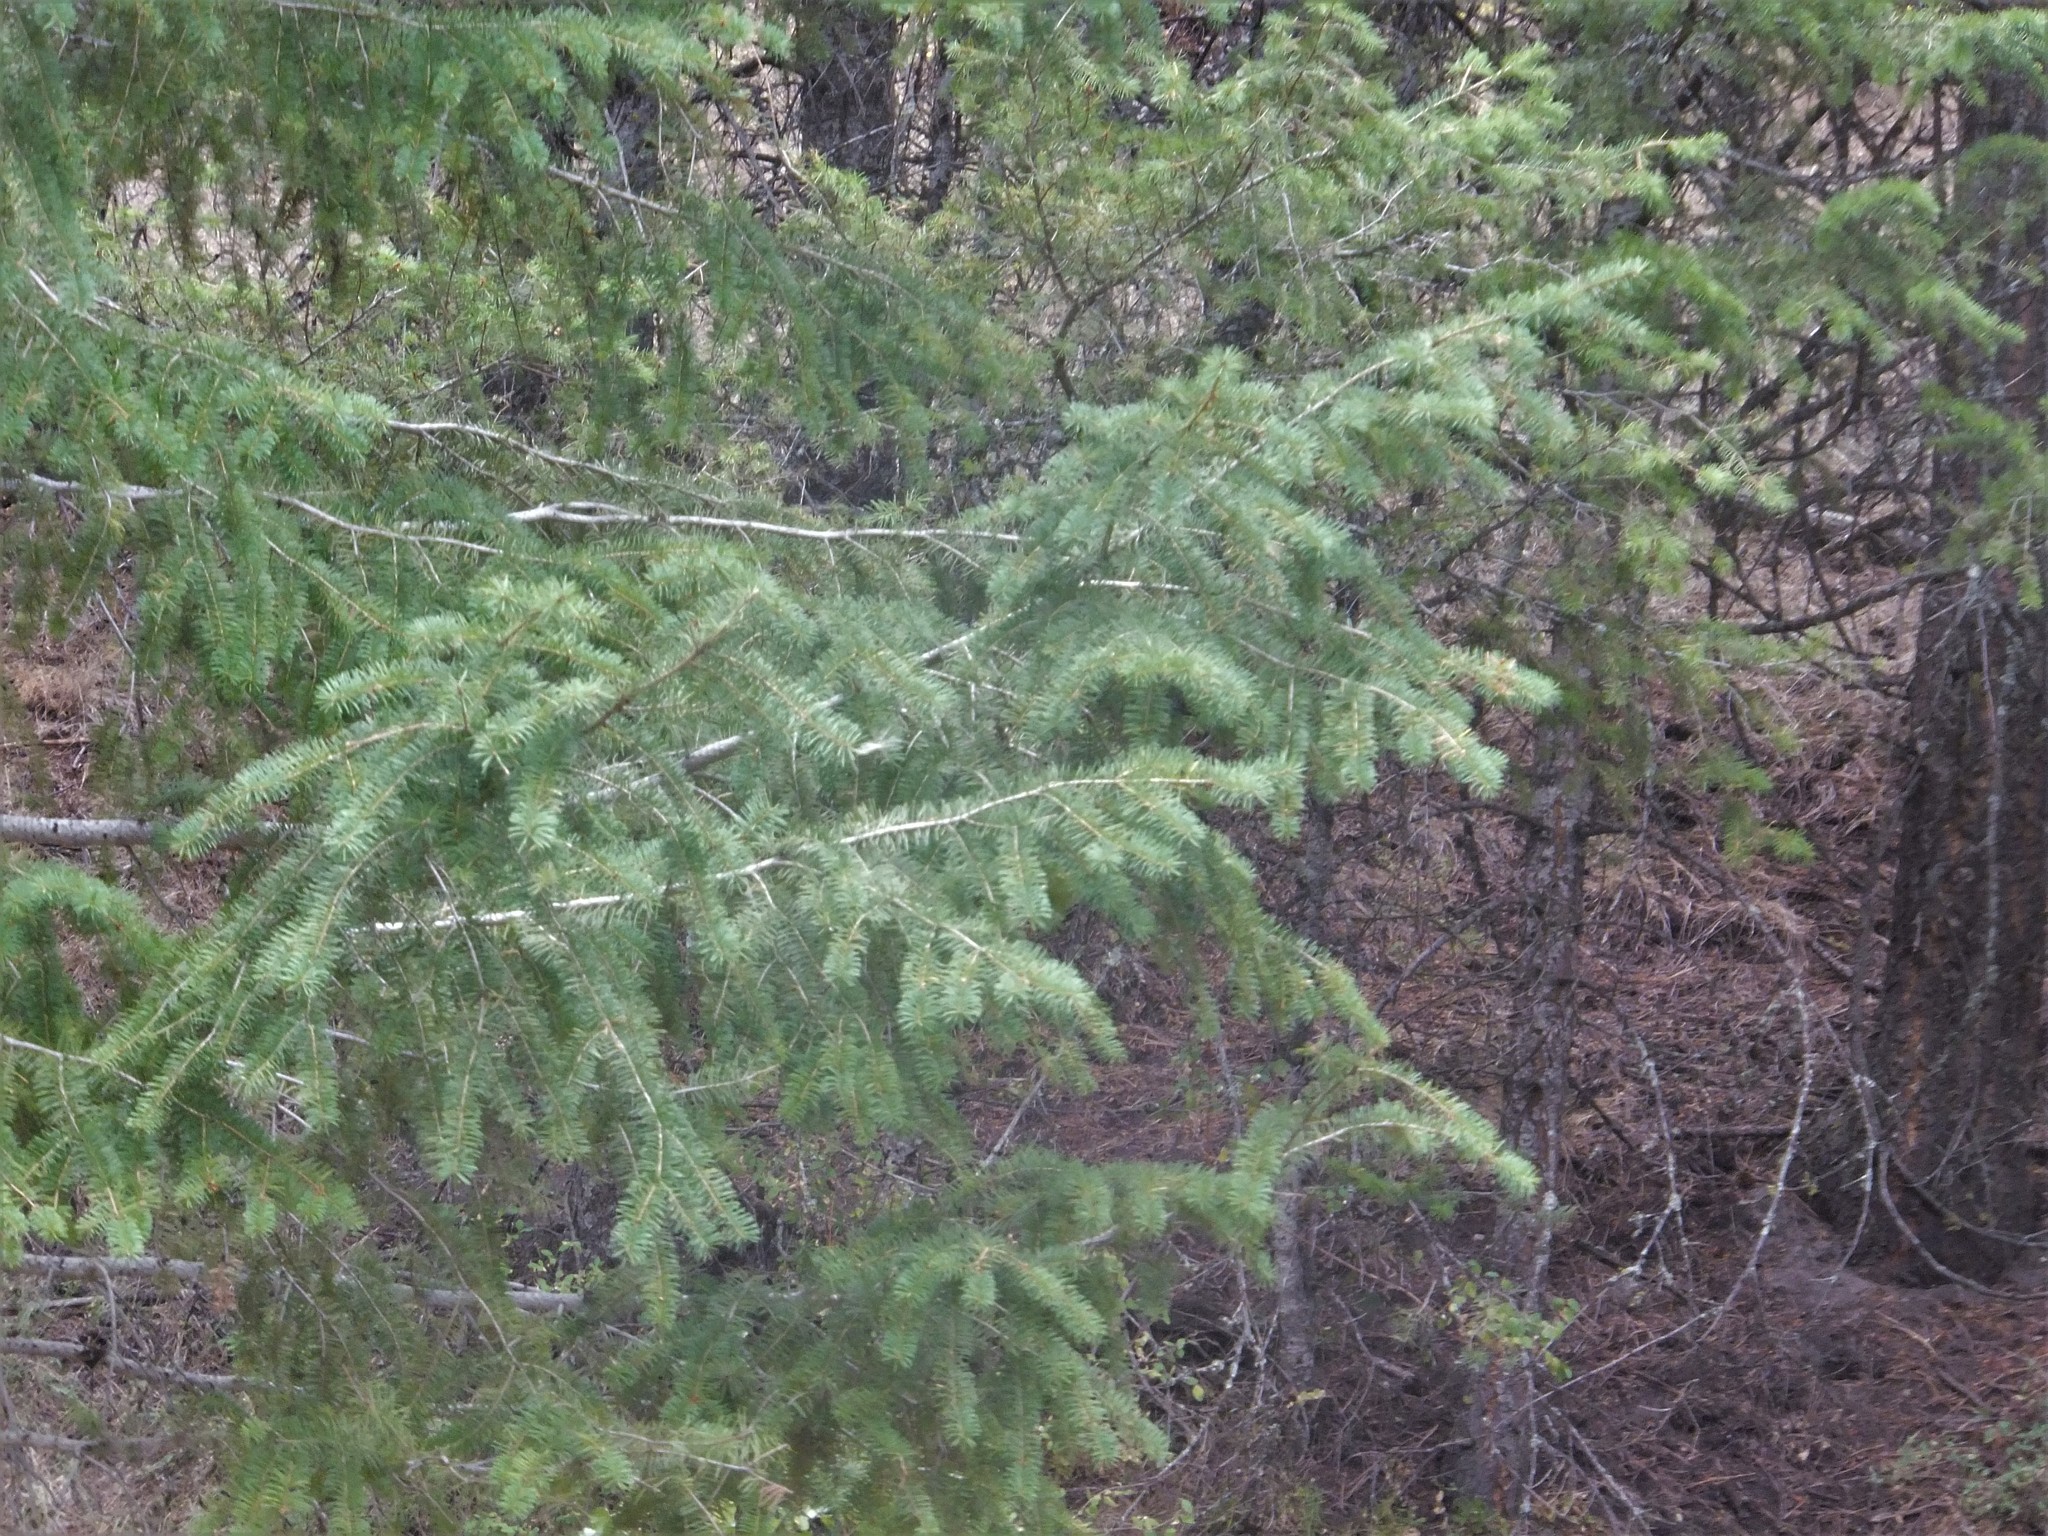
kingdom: Plantae
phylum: Tracheophyta
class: Pinopsida
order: Pinales
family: Pinaceae
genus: Pseudotsuga
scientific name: Pseudotsuga menziesii
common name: Douglas fir
